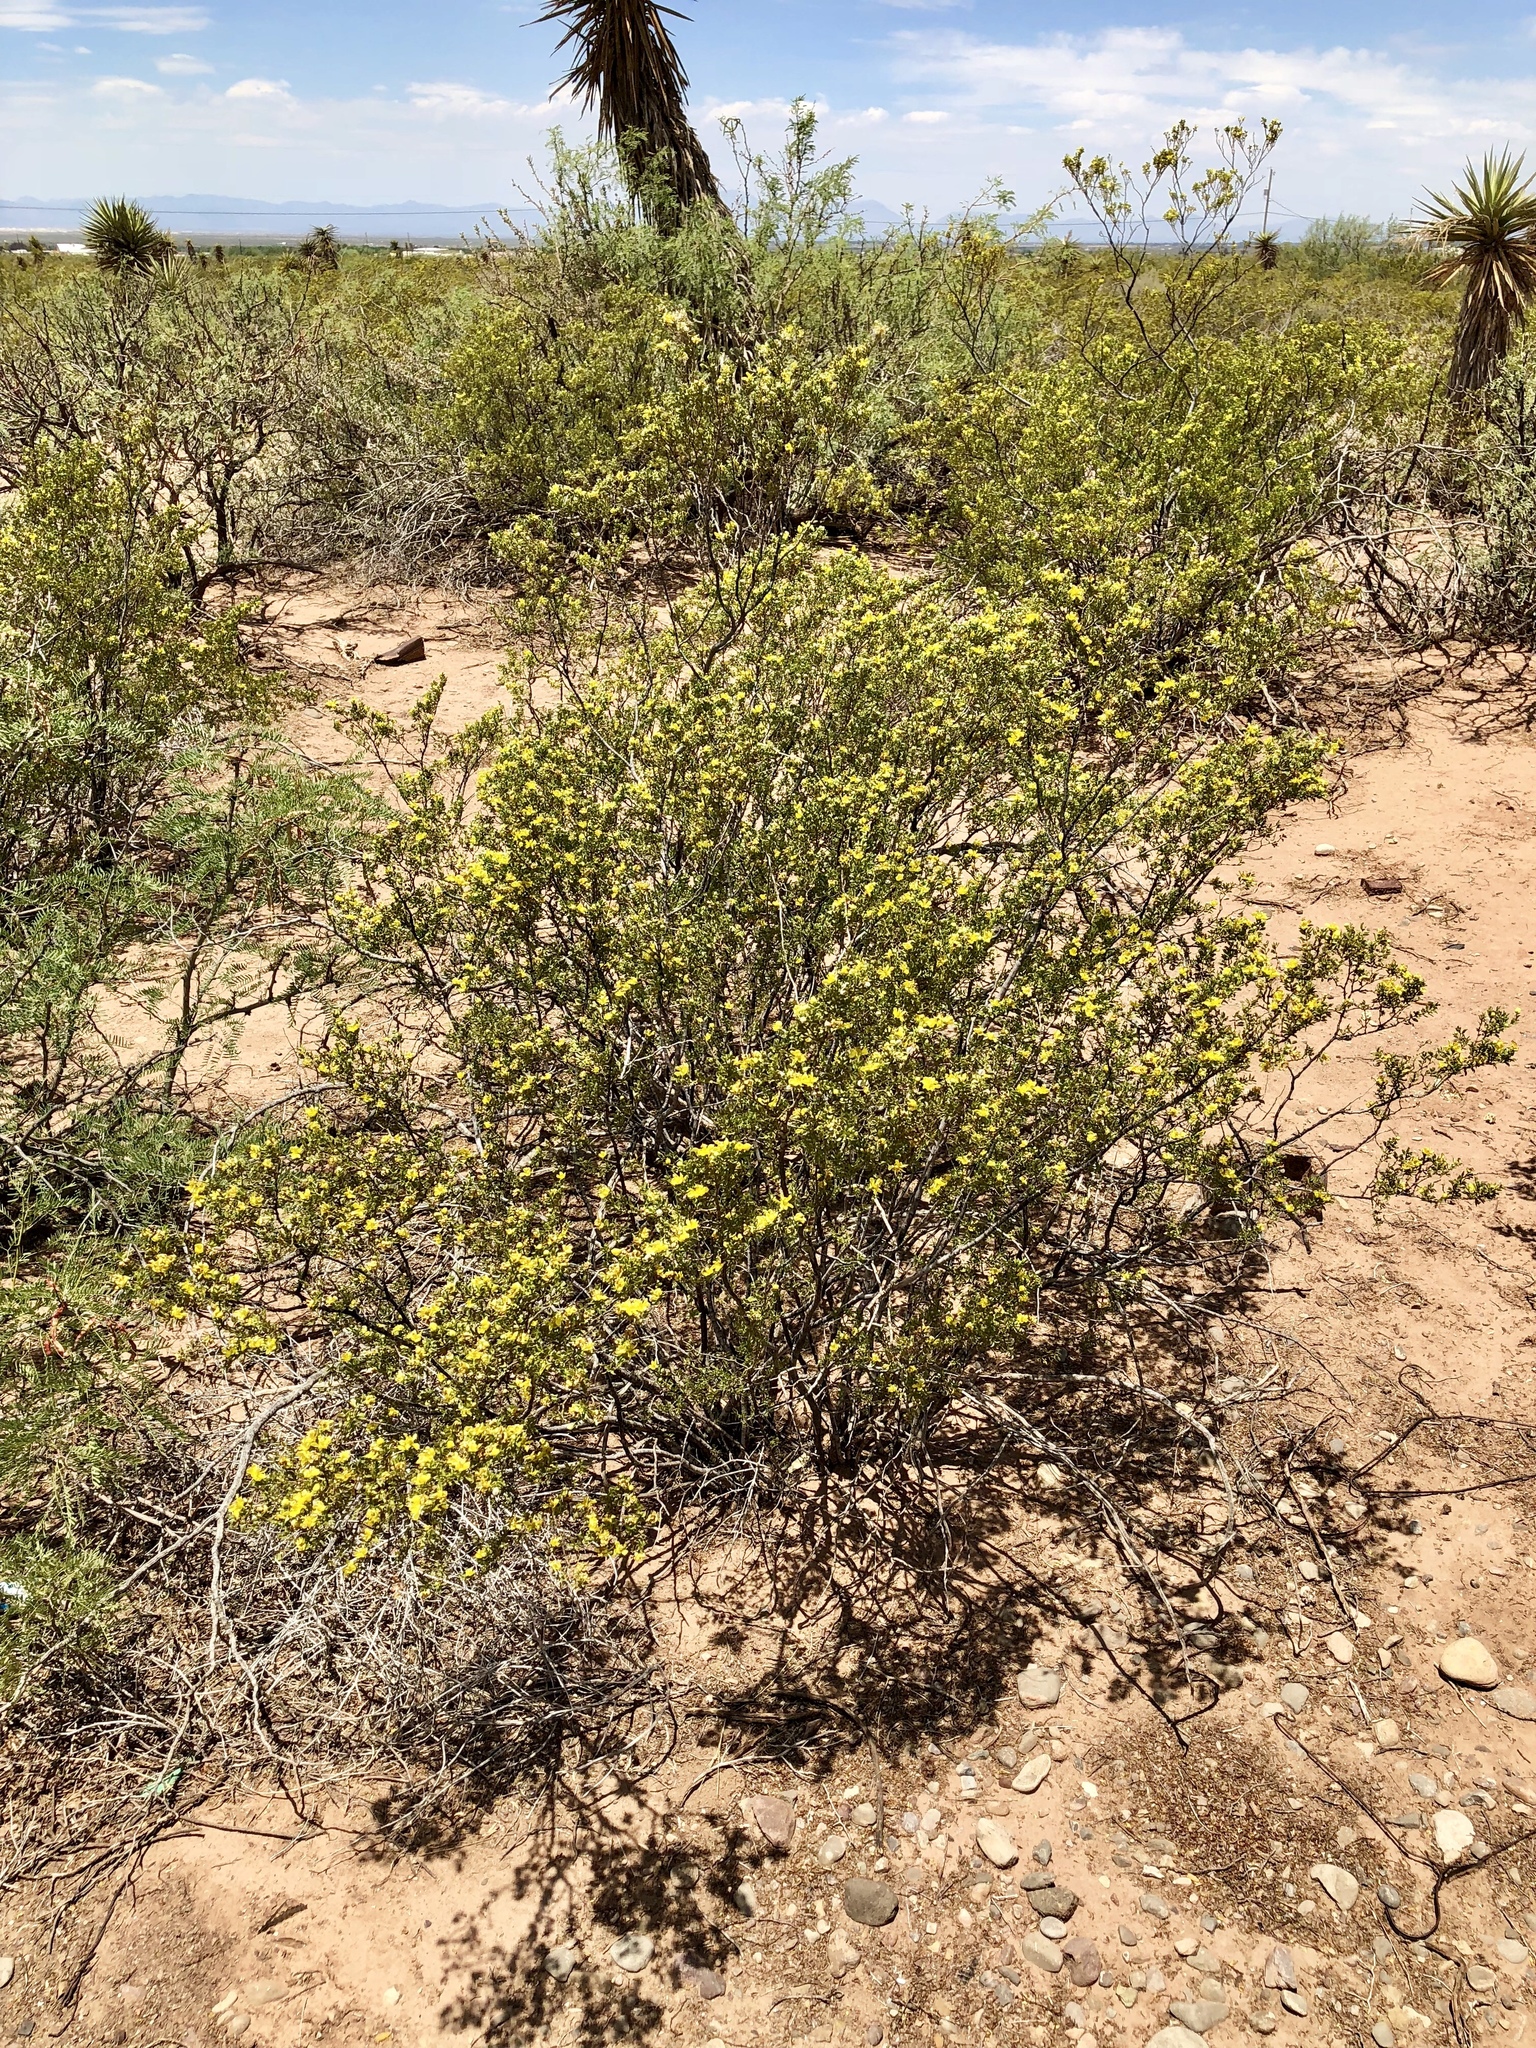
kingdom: Plantae
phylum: Tracheophyta
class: Magnoliopsida
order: Zygophyllales
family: Zygophyllaceae
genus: Larrea
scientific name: Larrea tridentata
